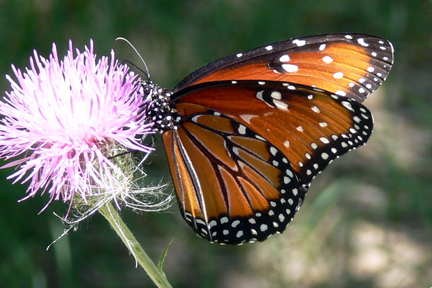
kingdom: Animalia
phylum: Arthropoda
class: Insecta
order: Lepidoptera
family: Nymphalidae
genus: Danaus
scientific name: Danaus gilippus
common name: Queen
